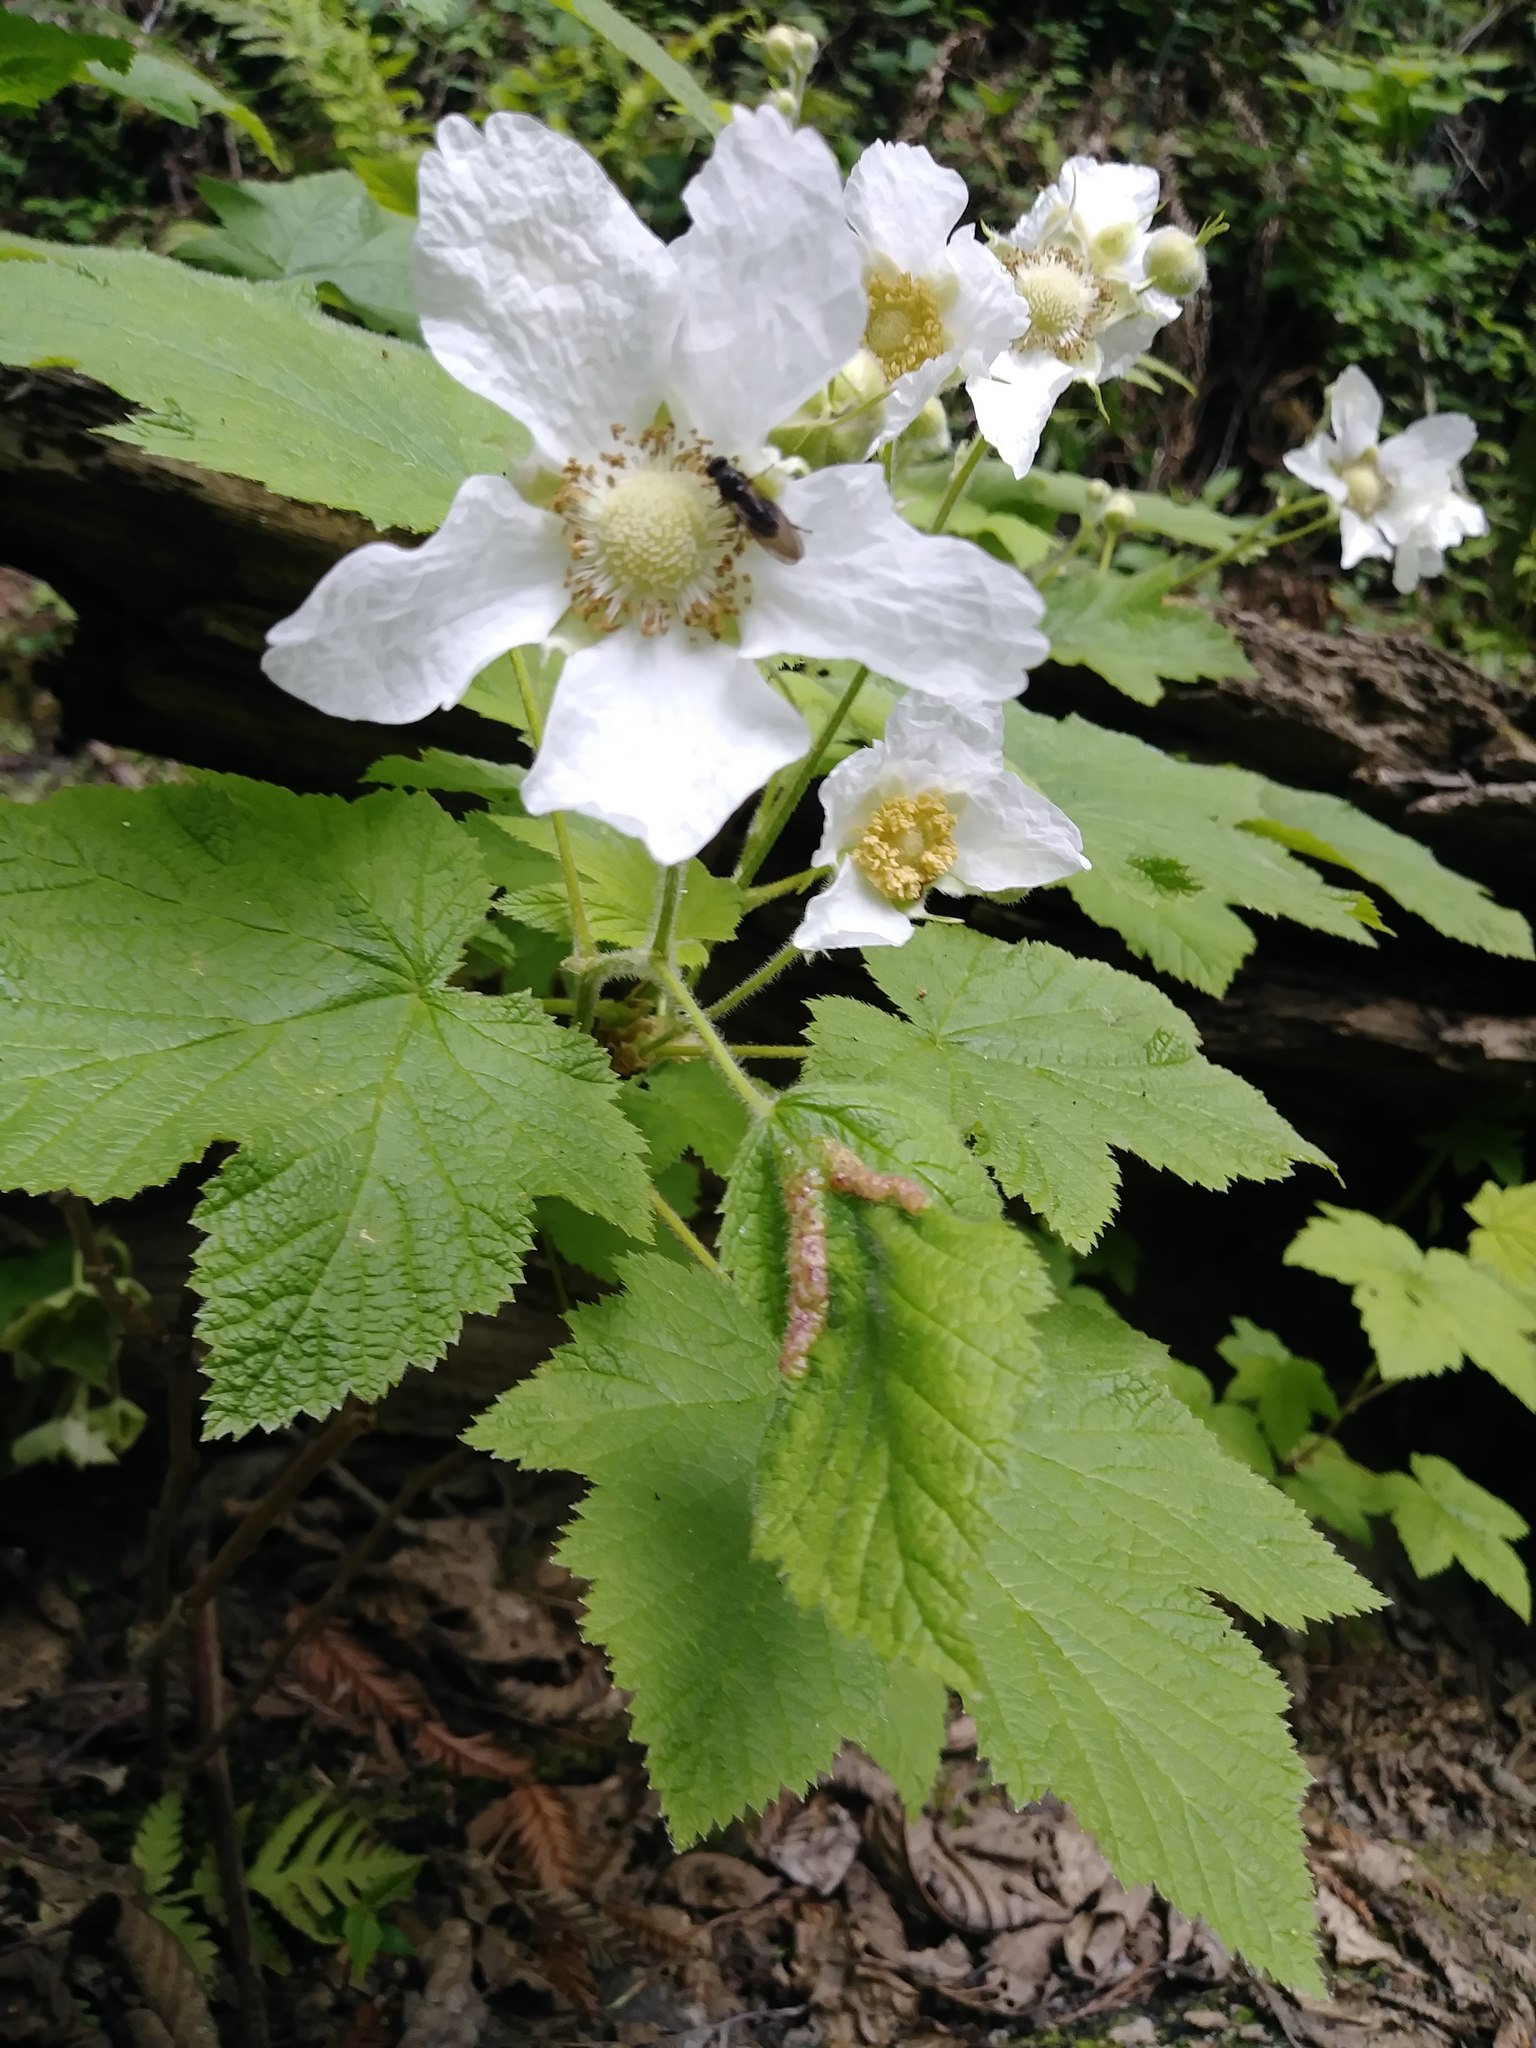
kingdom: Plantae
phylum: Tracheophyta
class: Magnoliopsida
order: Rosales
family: Rosaceae
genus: Rubus
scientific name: Rubus parviflorus
